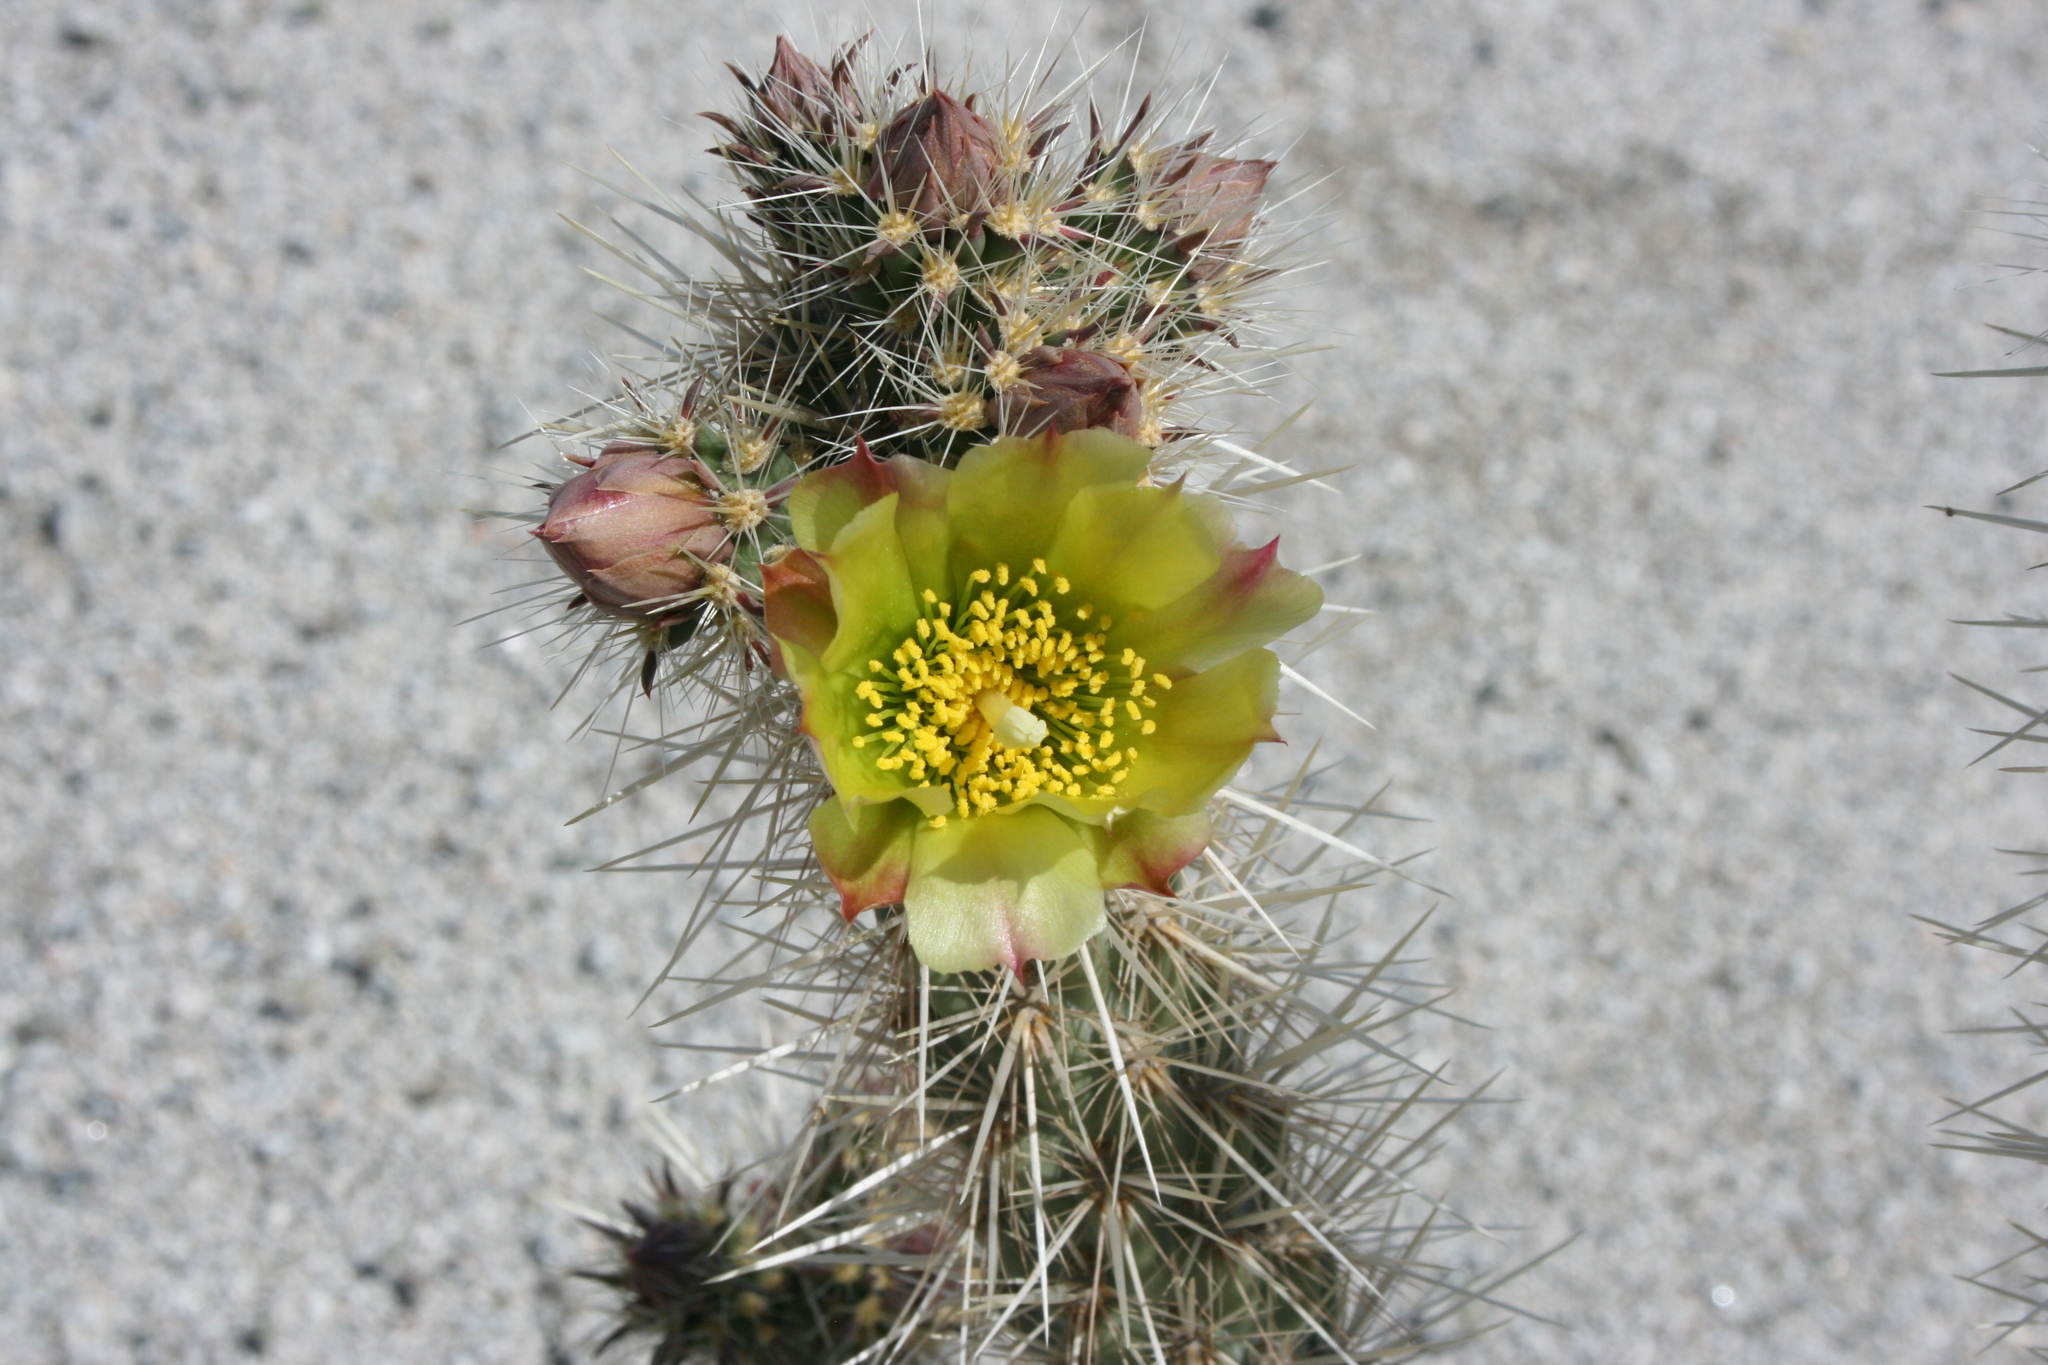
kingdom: Plantae
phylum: Tracheophyta
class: Magnoliopsida
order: Caryophyllales
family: Cactaceae
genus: Cylindropuntia
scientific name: Cylindropuntia ganderi
